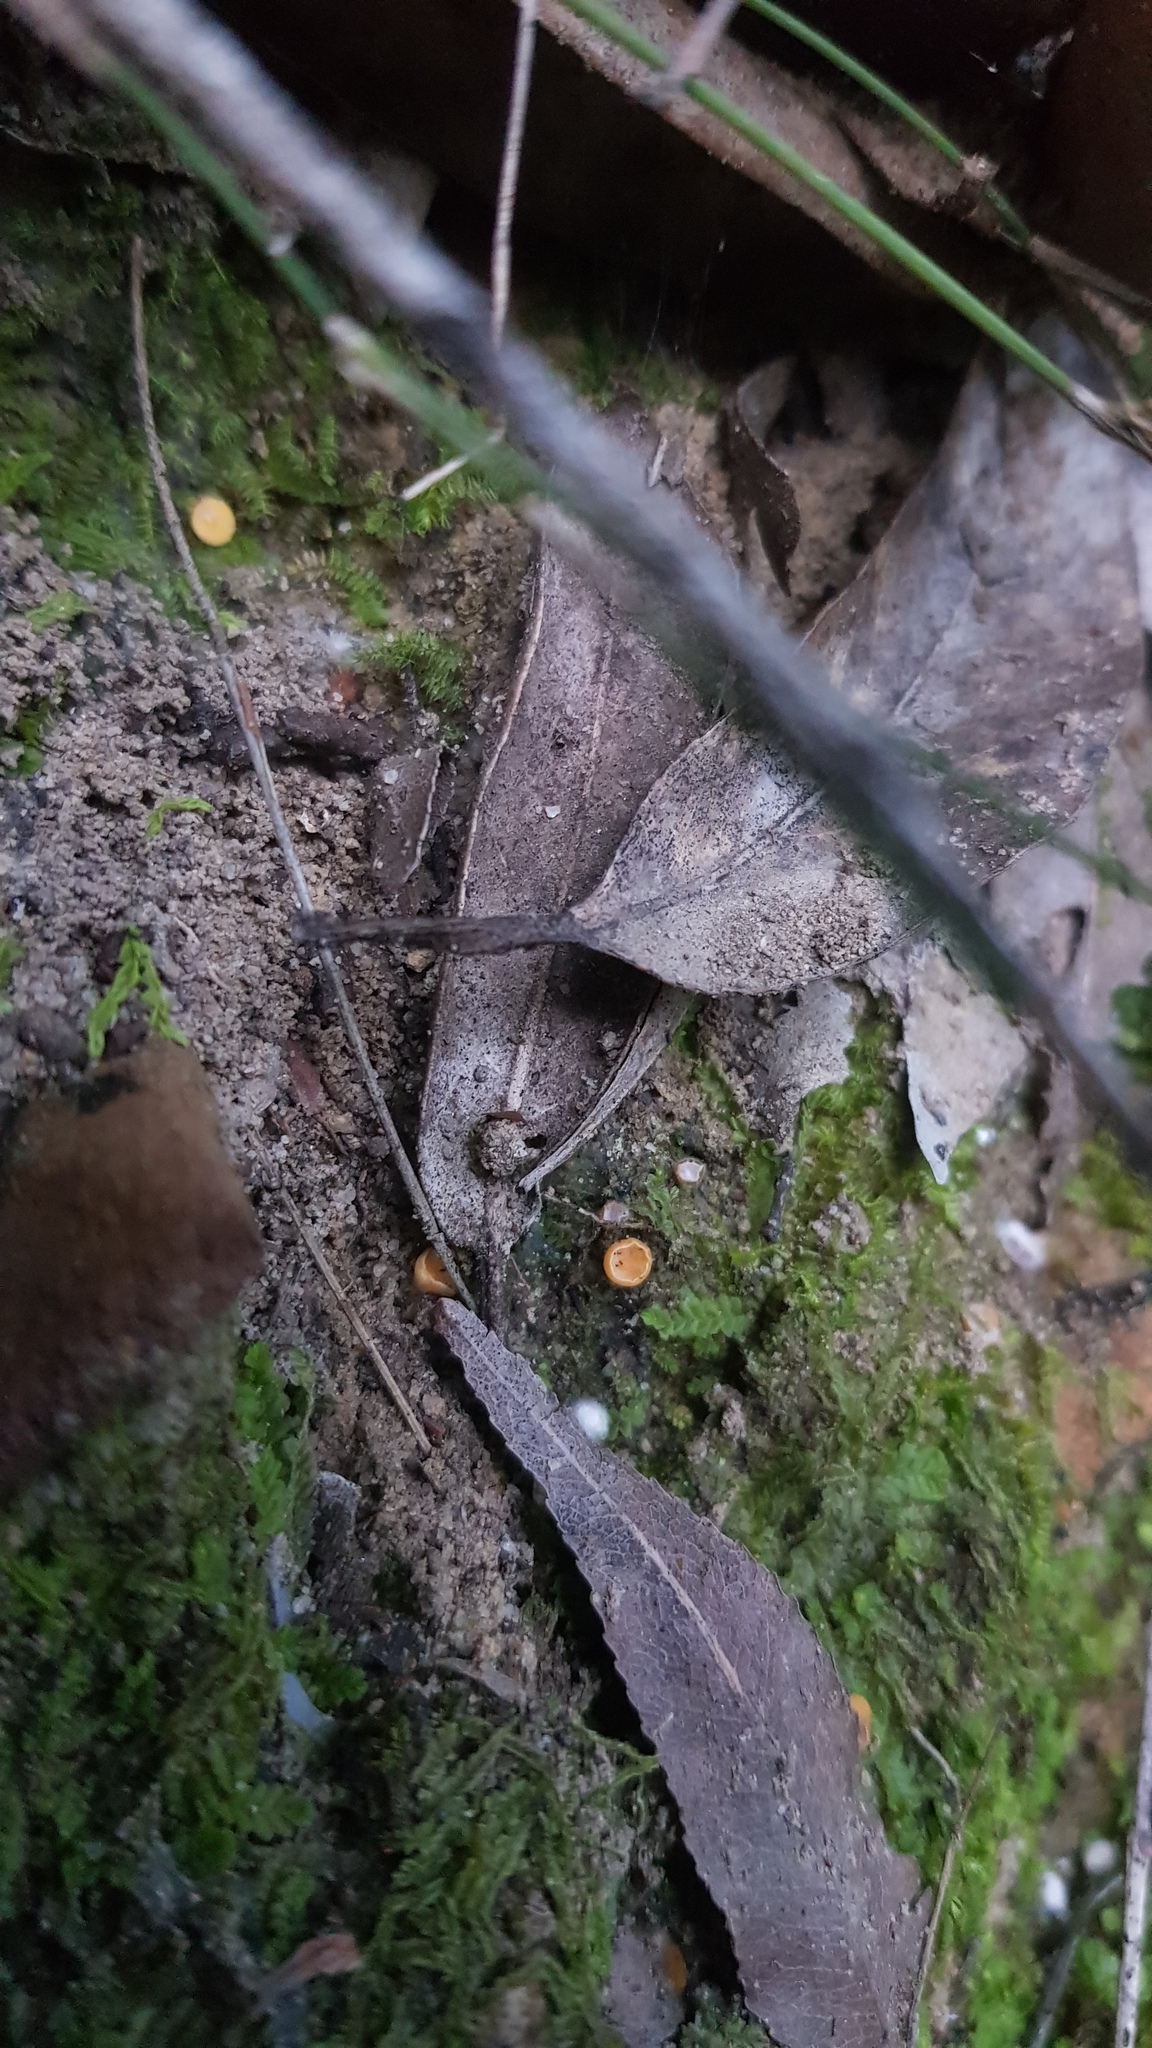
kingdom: Fungi
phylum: Ascomycota
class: Leotiomycetes
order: Helotiales
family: Helotiaceae
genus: Phaeohelotium
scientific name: Phaeohelotium baileyanum
